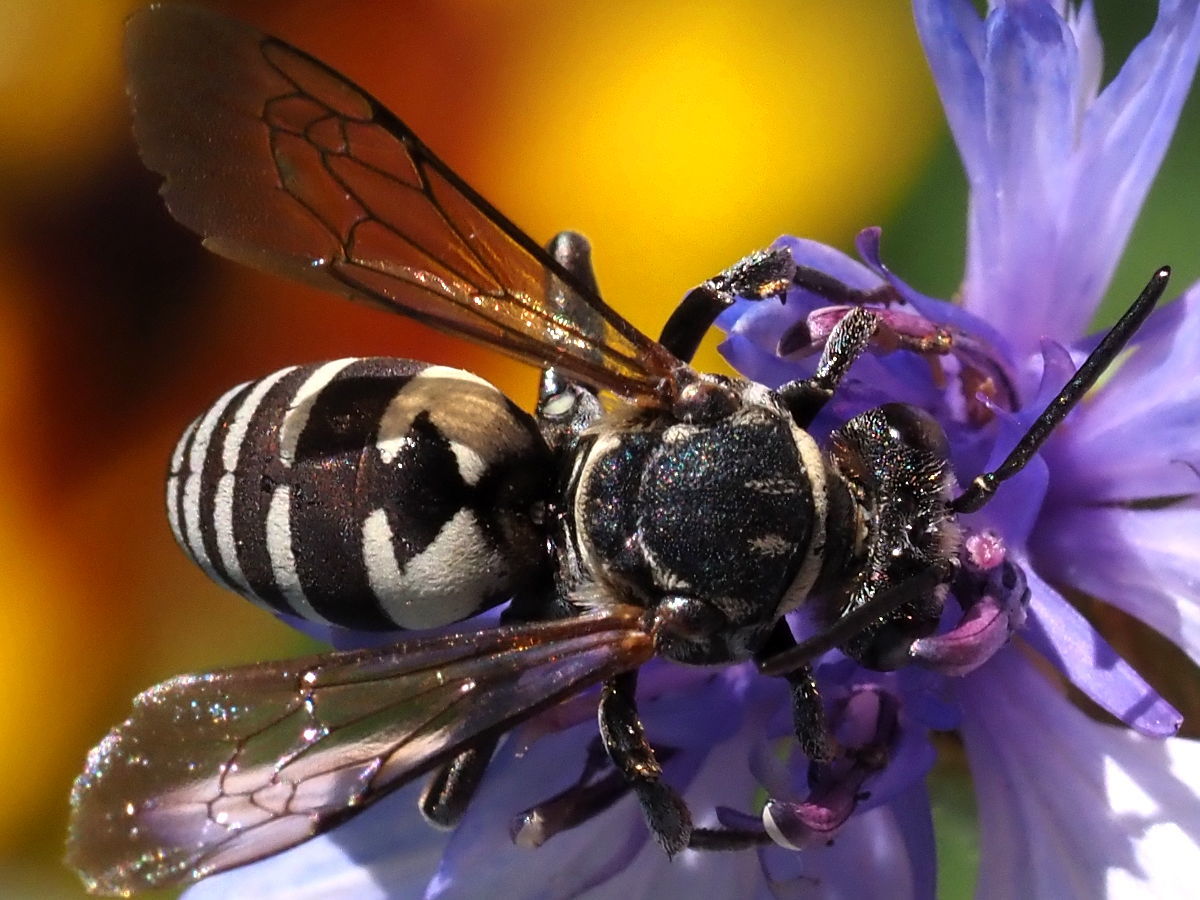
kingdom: Animalia
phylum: Arthropoda
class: Insecta
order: Hymenoptera
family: Apidae
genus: Triepeolus
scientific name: Triepeolus lunatus
